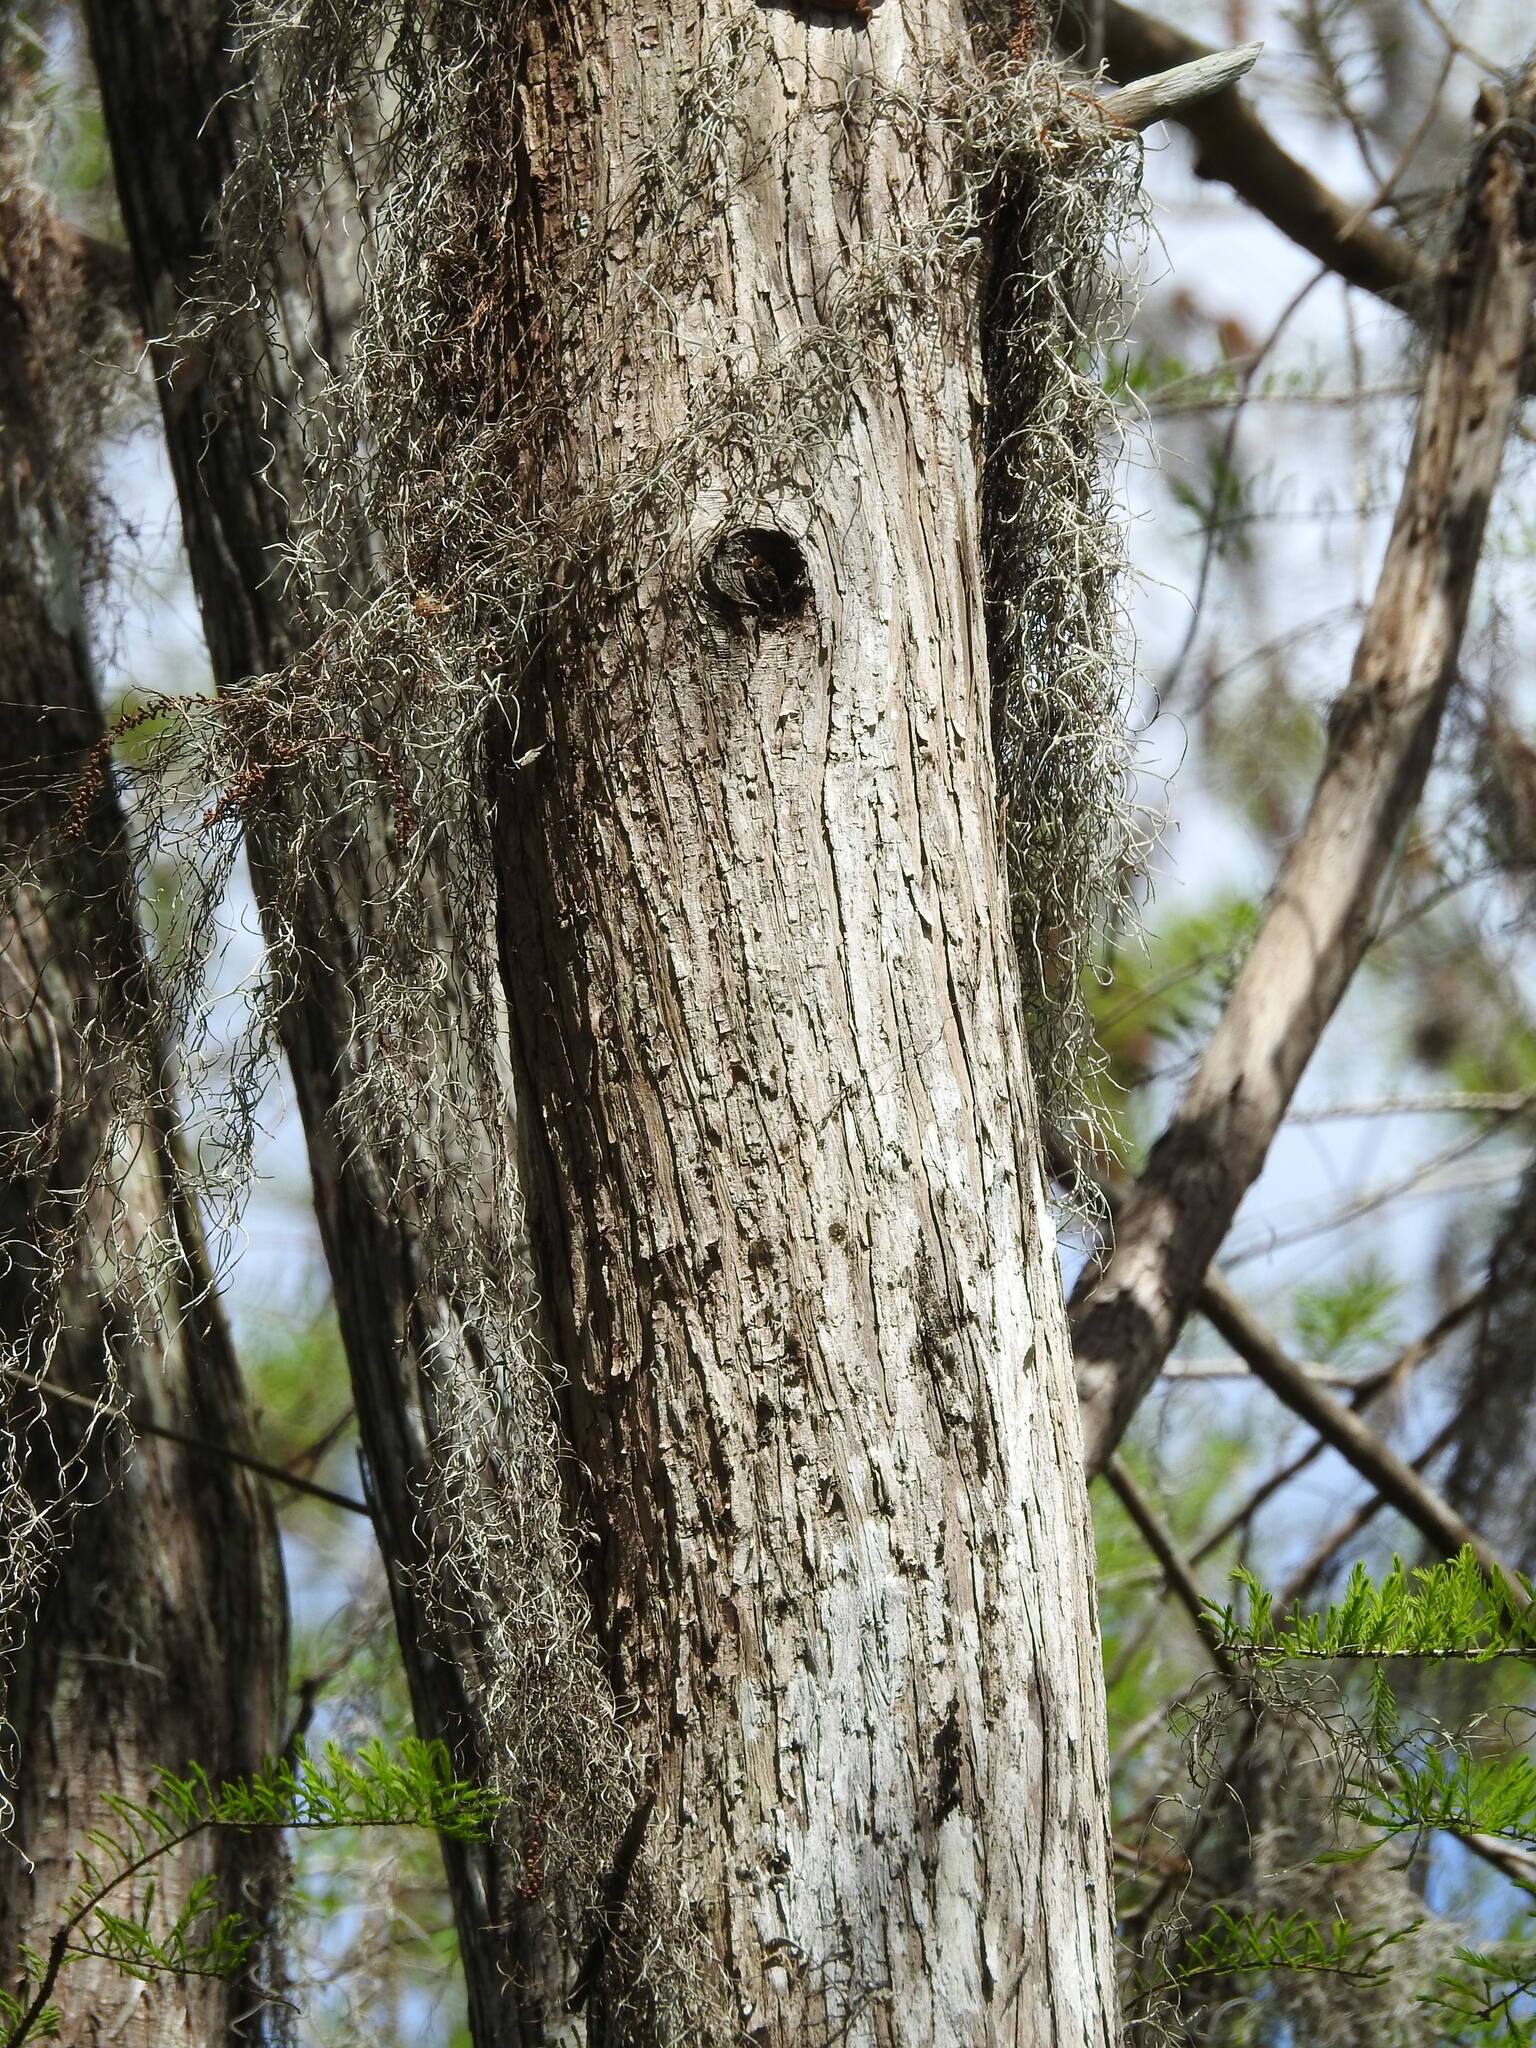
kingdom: Plantae
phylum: Tracheophyta
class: Liliopsida
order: Poales
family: Bromeliaceae
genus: Tillandsia
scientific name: Tillandsia usneoides
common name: Spanish moss
